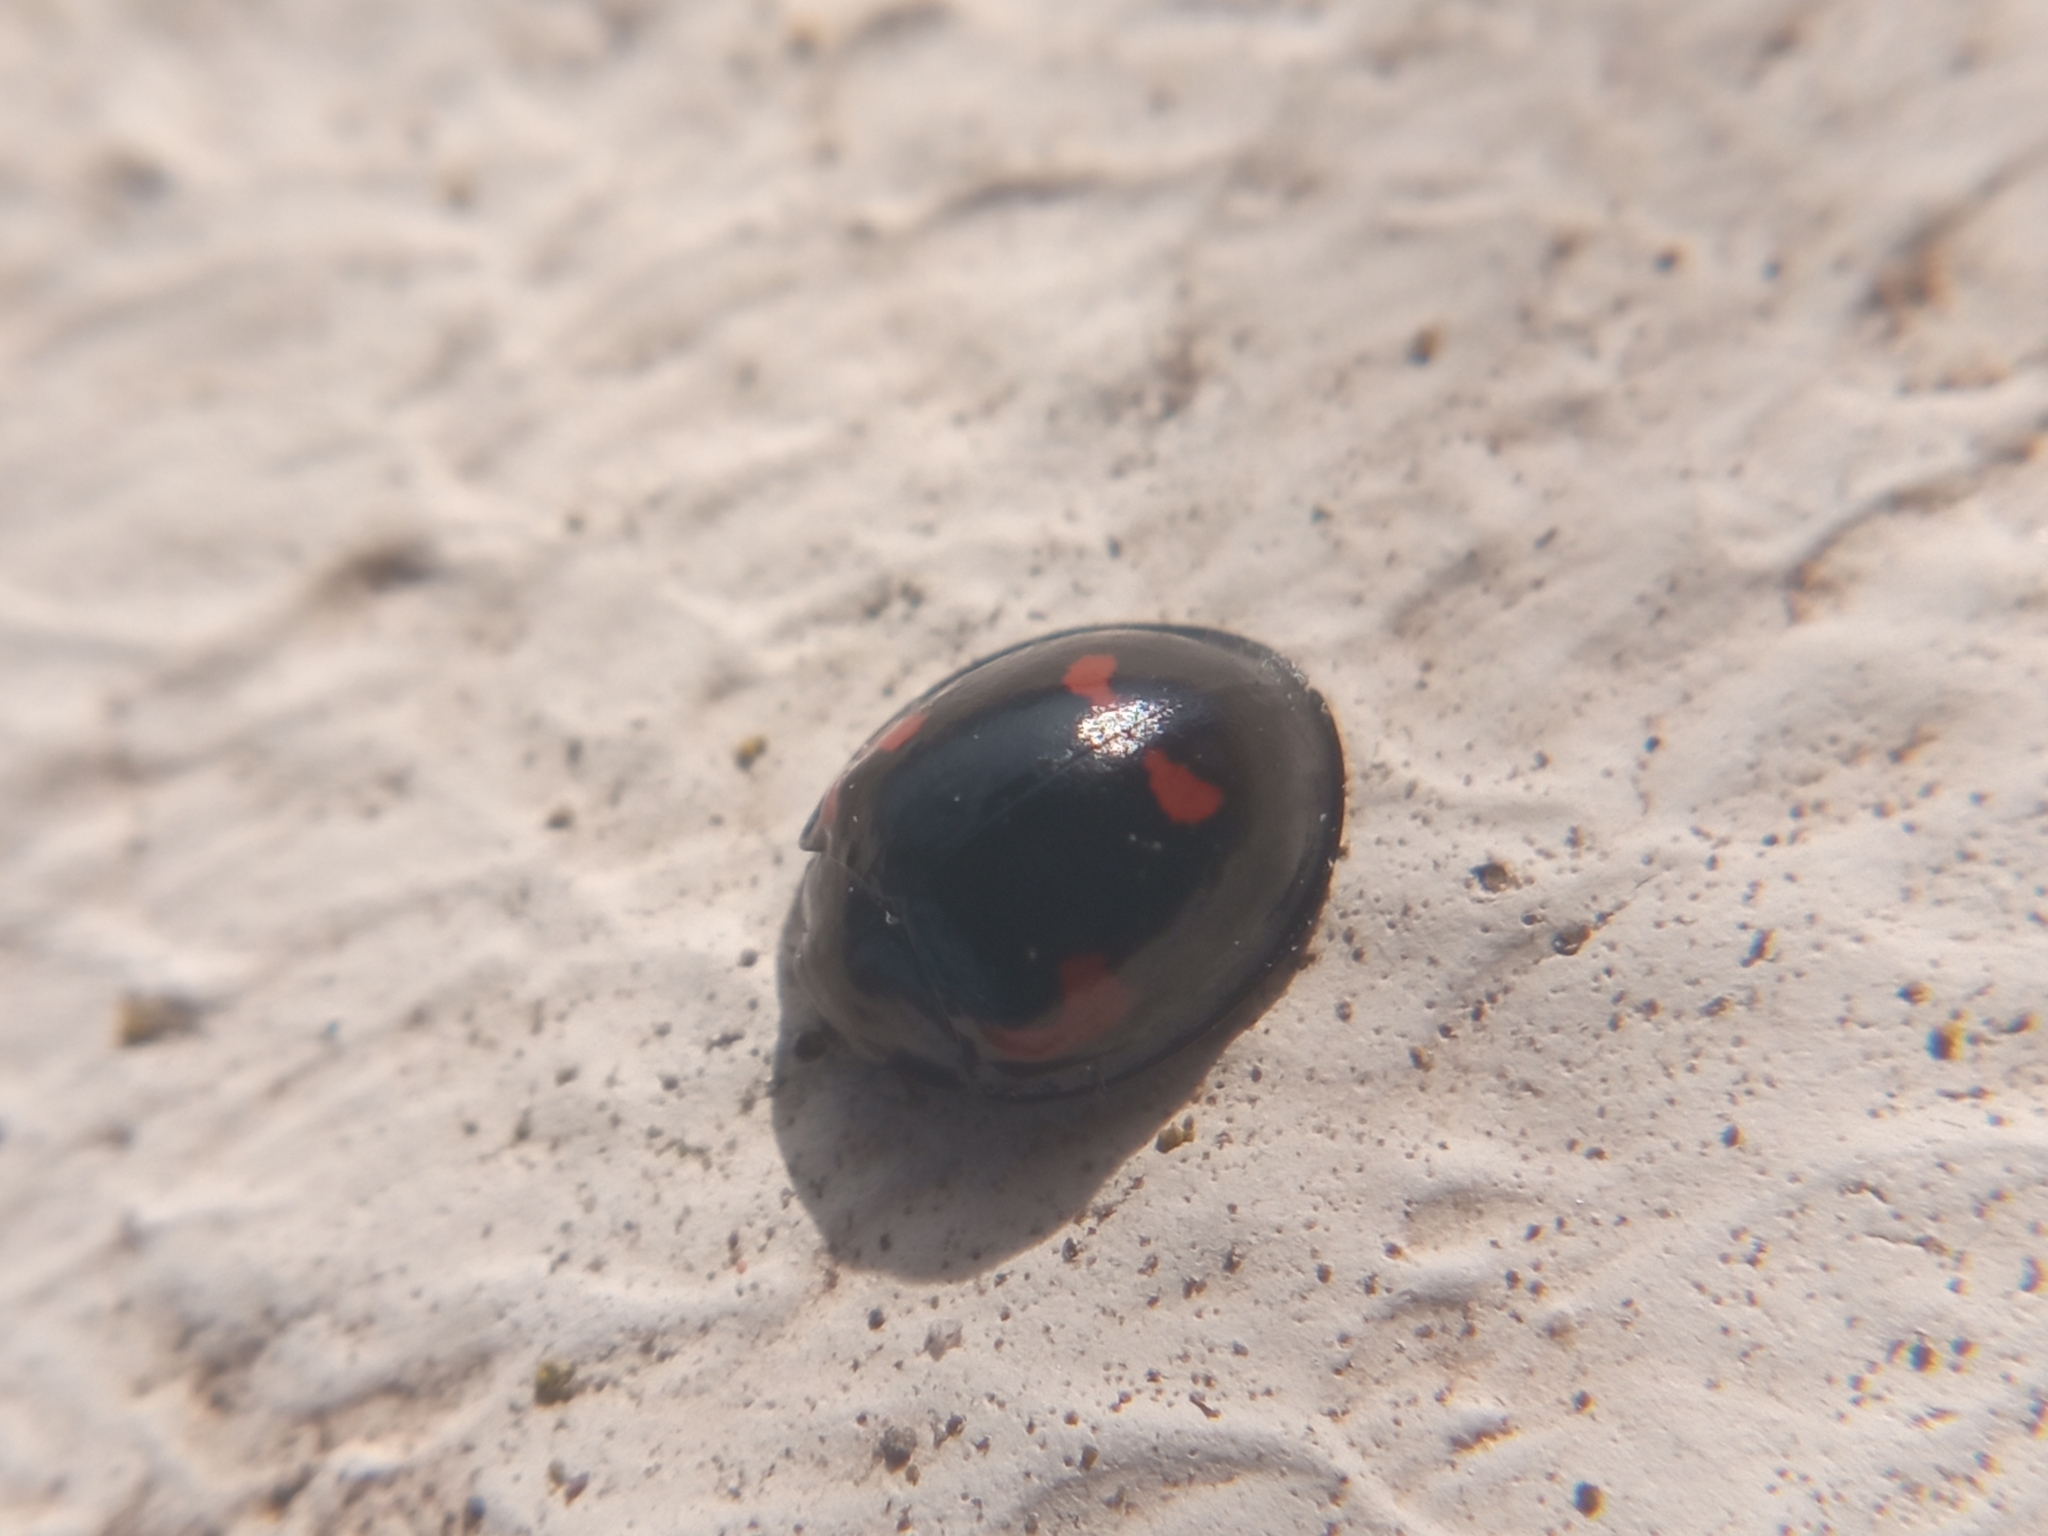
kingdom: Animalia
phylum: Arthropoda
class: Insecta
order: Coleoptera
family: Coccinellidae
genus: Brumus
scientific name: Brumus quadripustulatus
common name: Ladybird beetle
